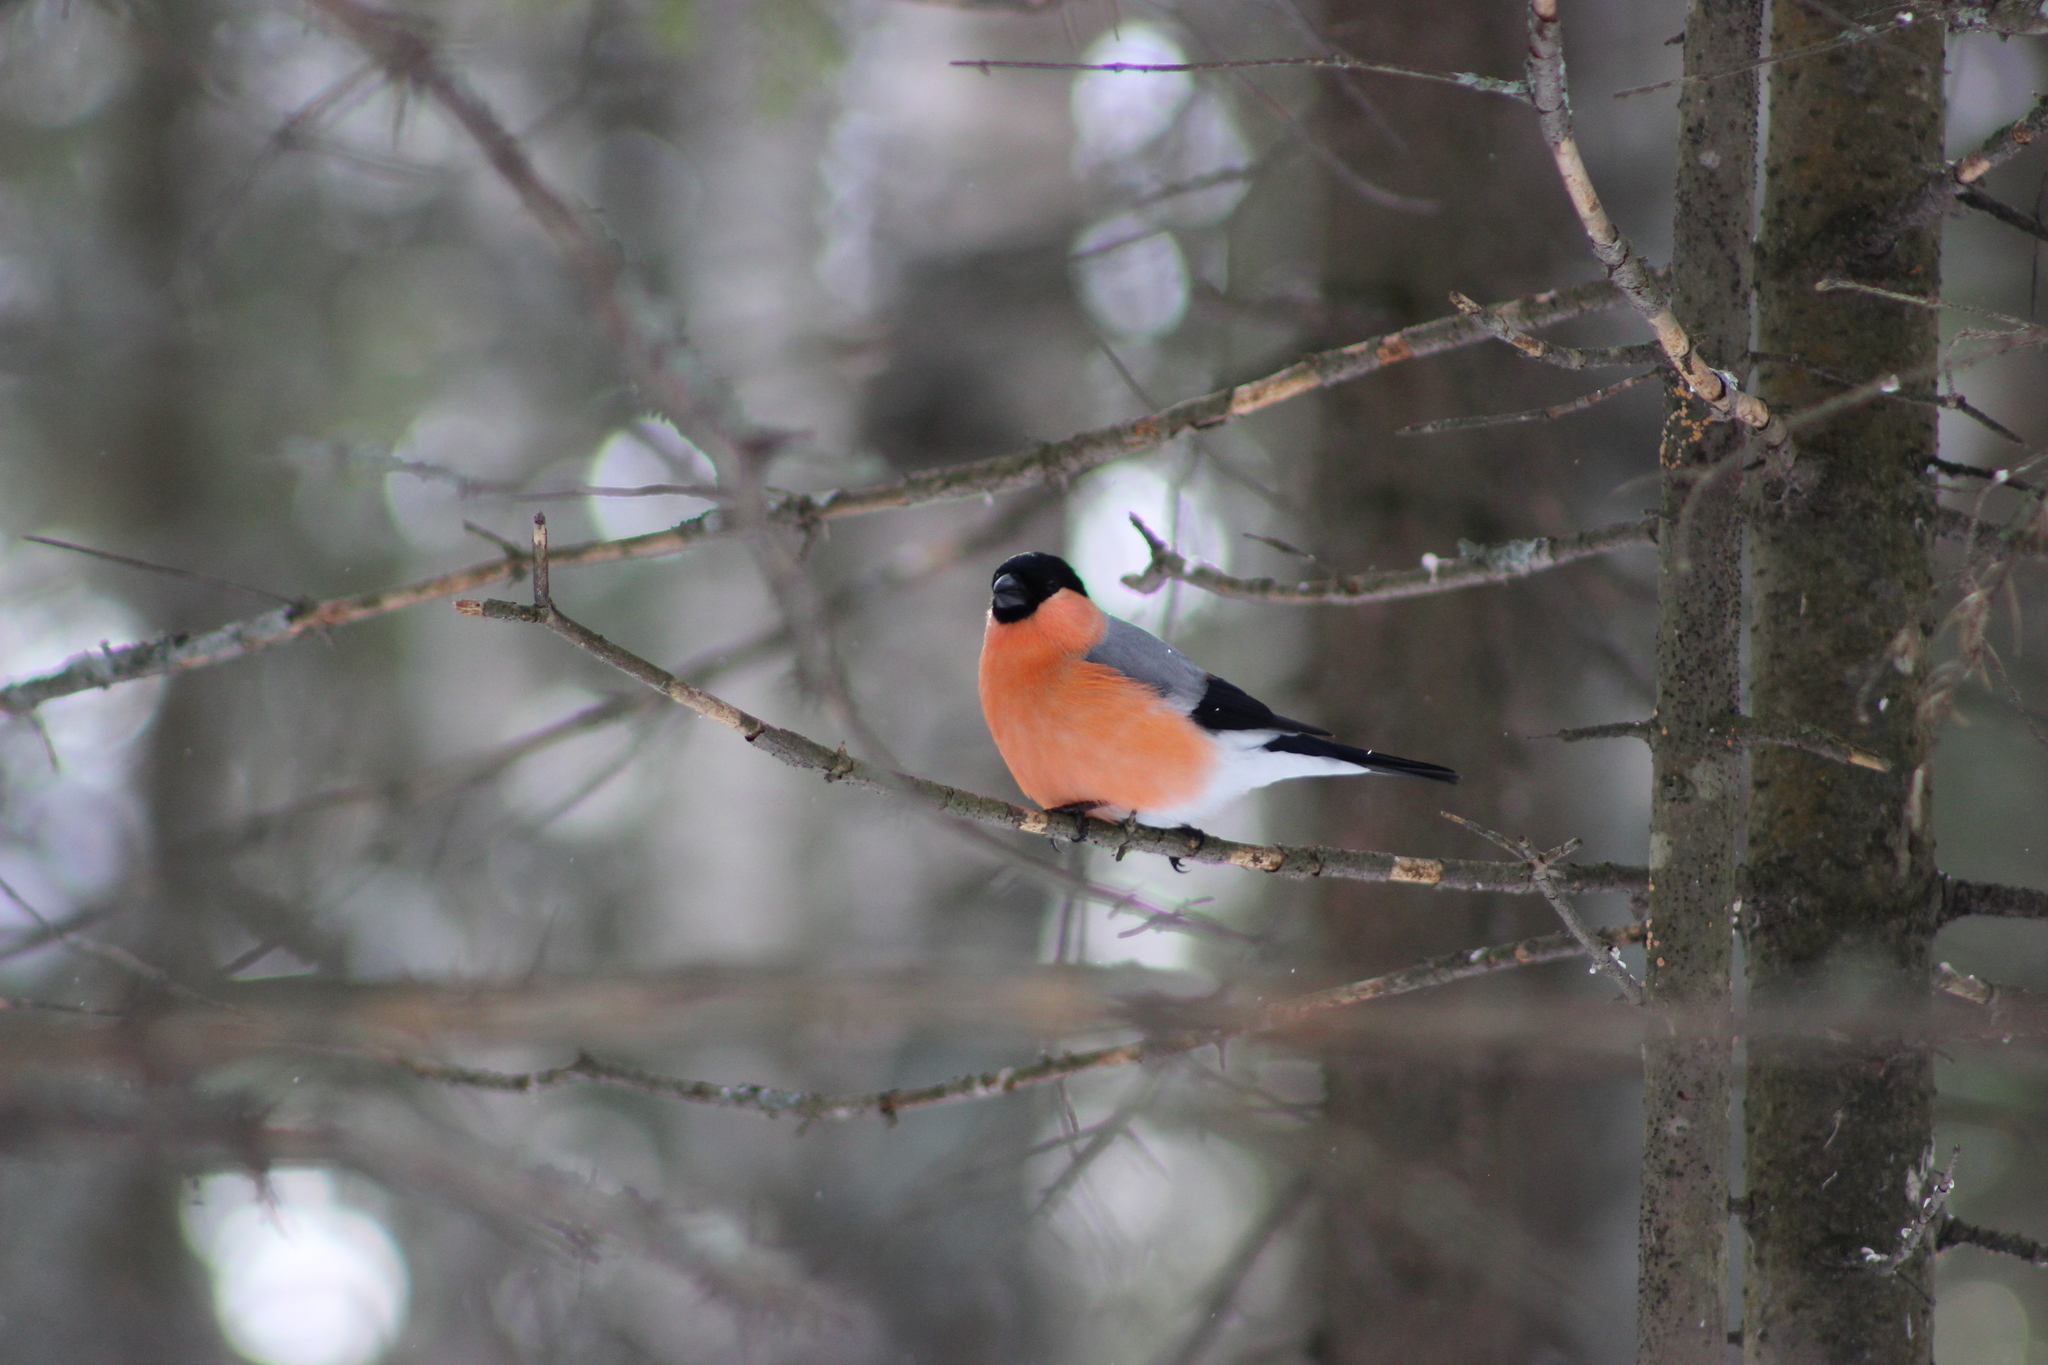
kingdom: Animalia
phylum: Chordata
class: Aves
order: Passeriformes
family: Fringillidae
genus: Pyrrhula
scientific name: Pyrrhula pyrrhula
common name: Eurasian bullfinch
